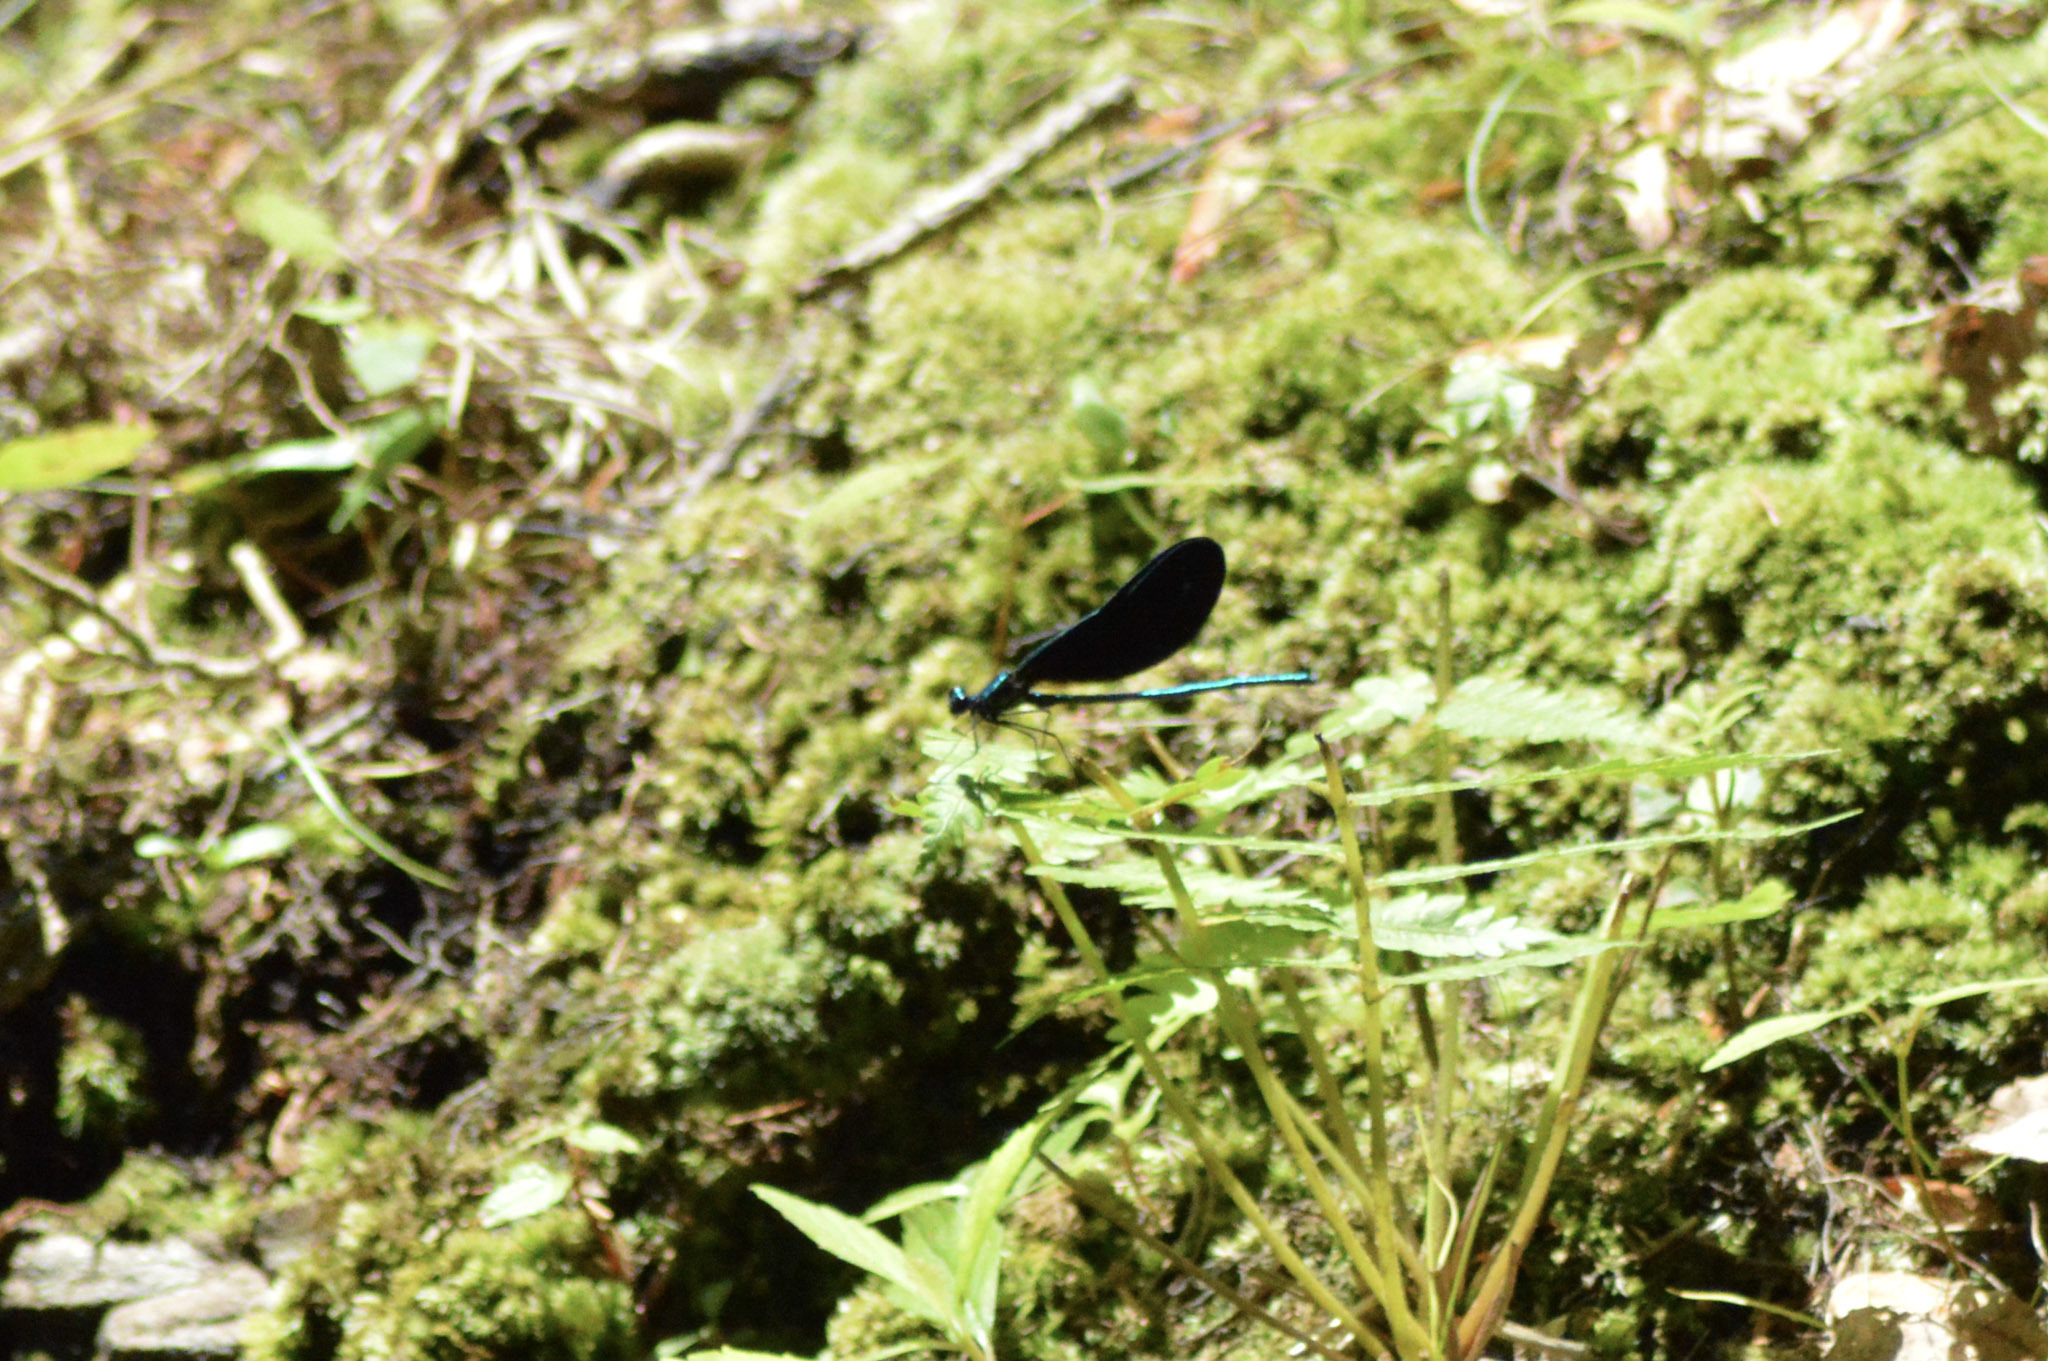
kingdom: Animalia
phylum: Arthropoda
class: Insecta
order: Odonata
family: Calopterygidae
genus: Calopteryx
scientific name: Calopteryx maculata
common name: Ebony jewelwing
